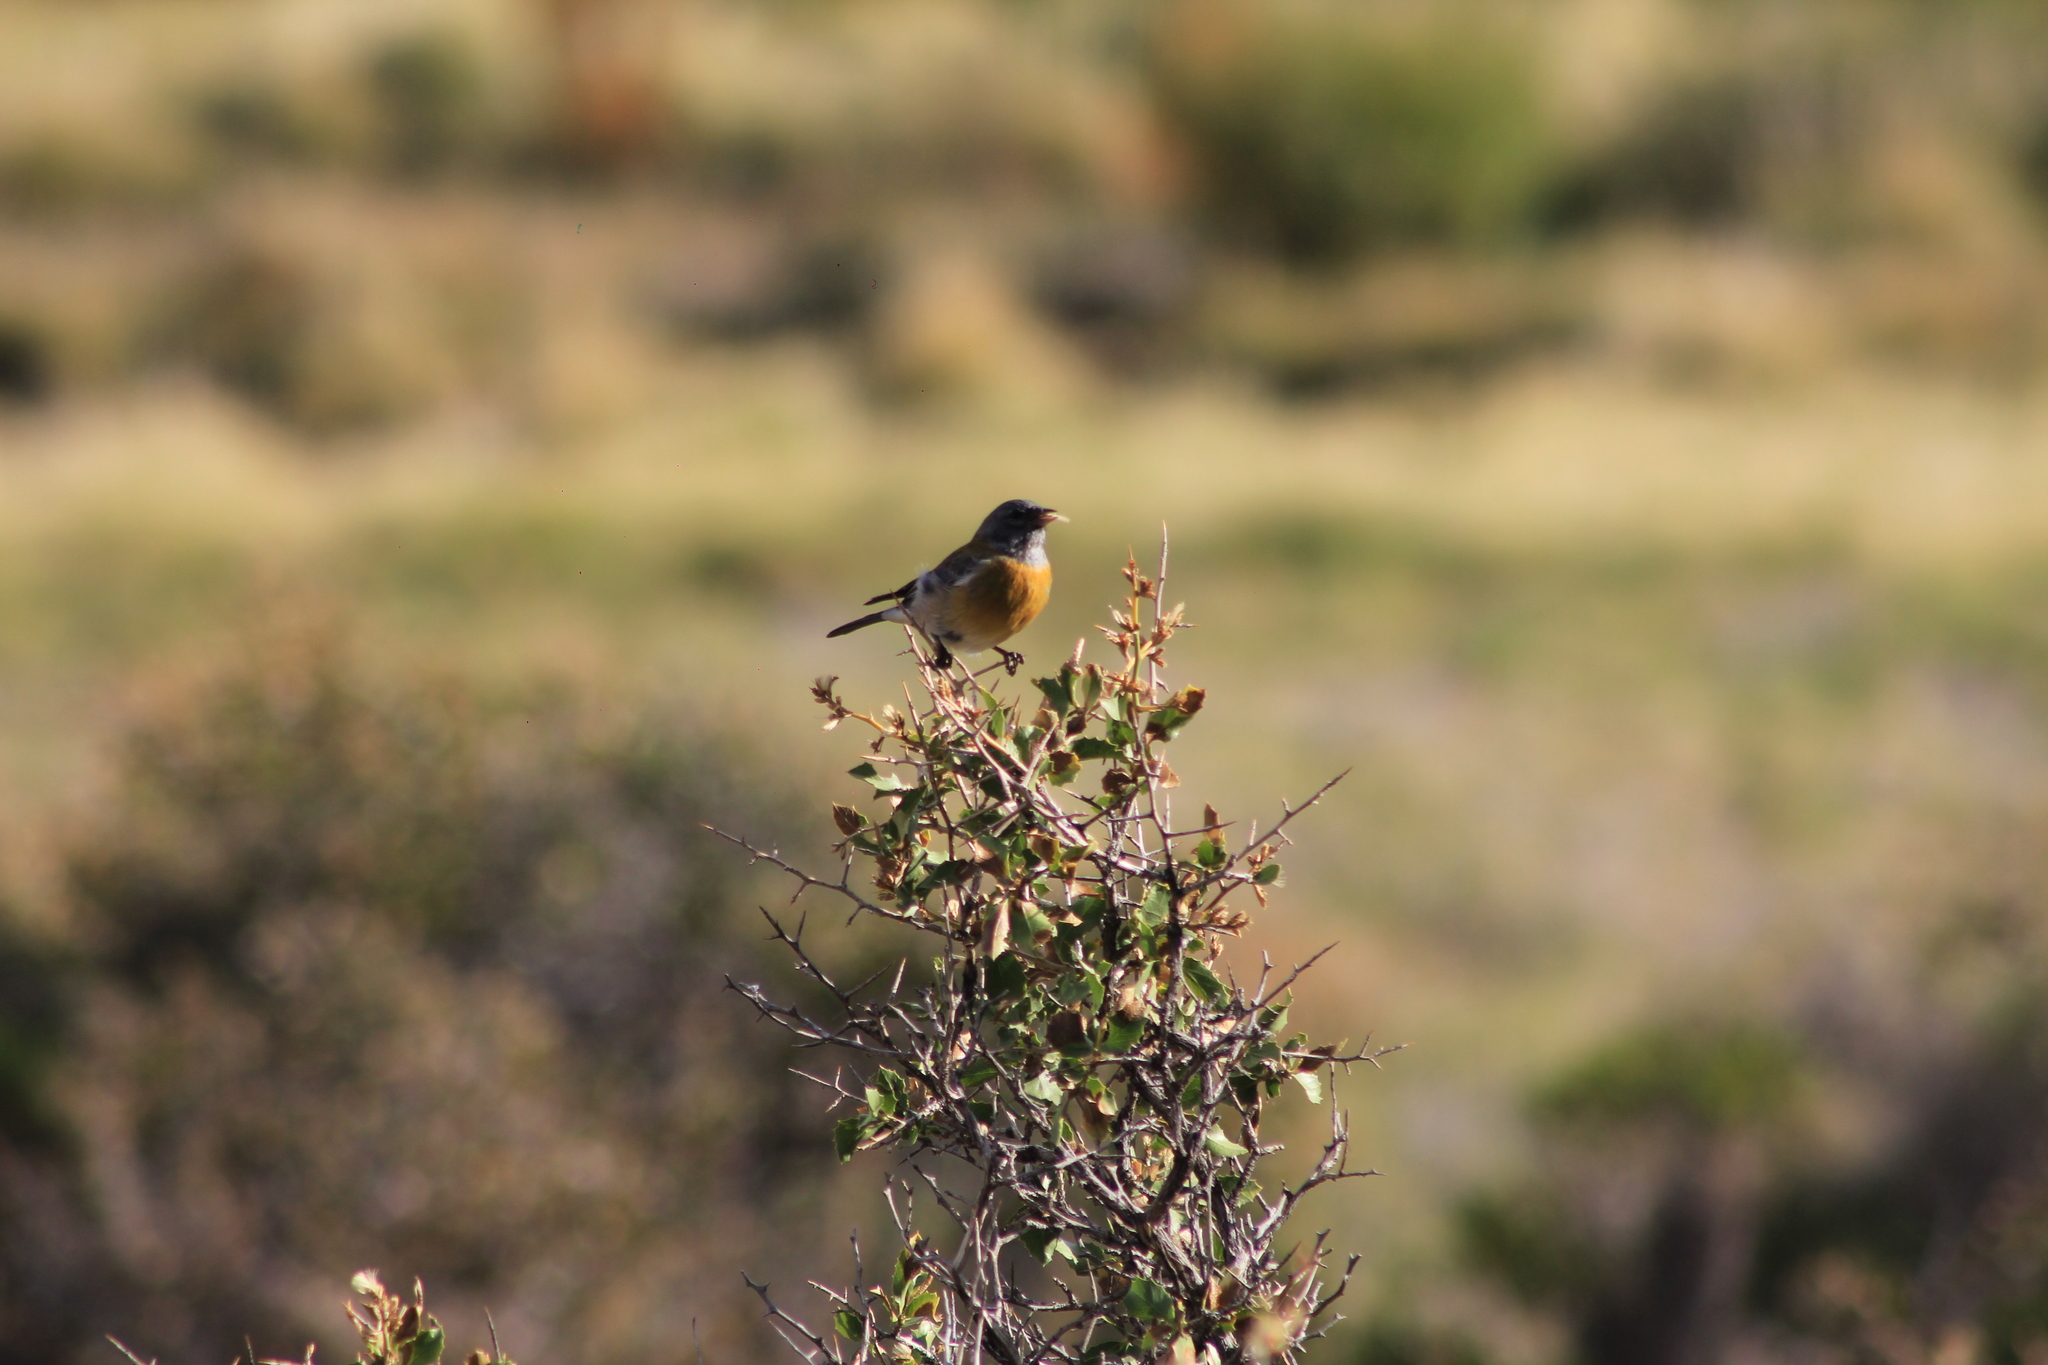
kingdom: Animalia
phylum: Chordata
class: Aves
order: Passeriformes
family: Thraupidae
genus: Phrygilus
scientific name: Phrygilus gayi
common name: Grey-hooded sierra finch
